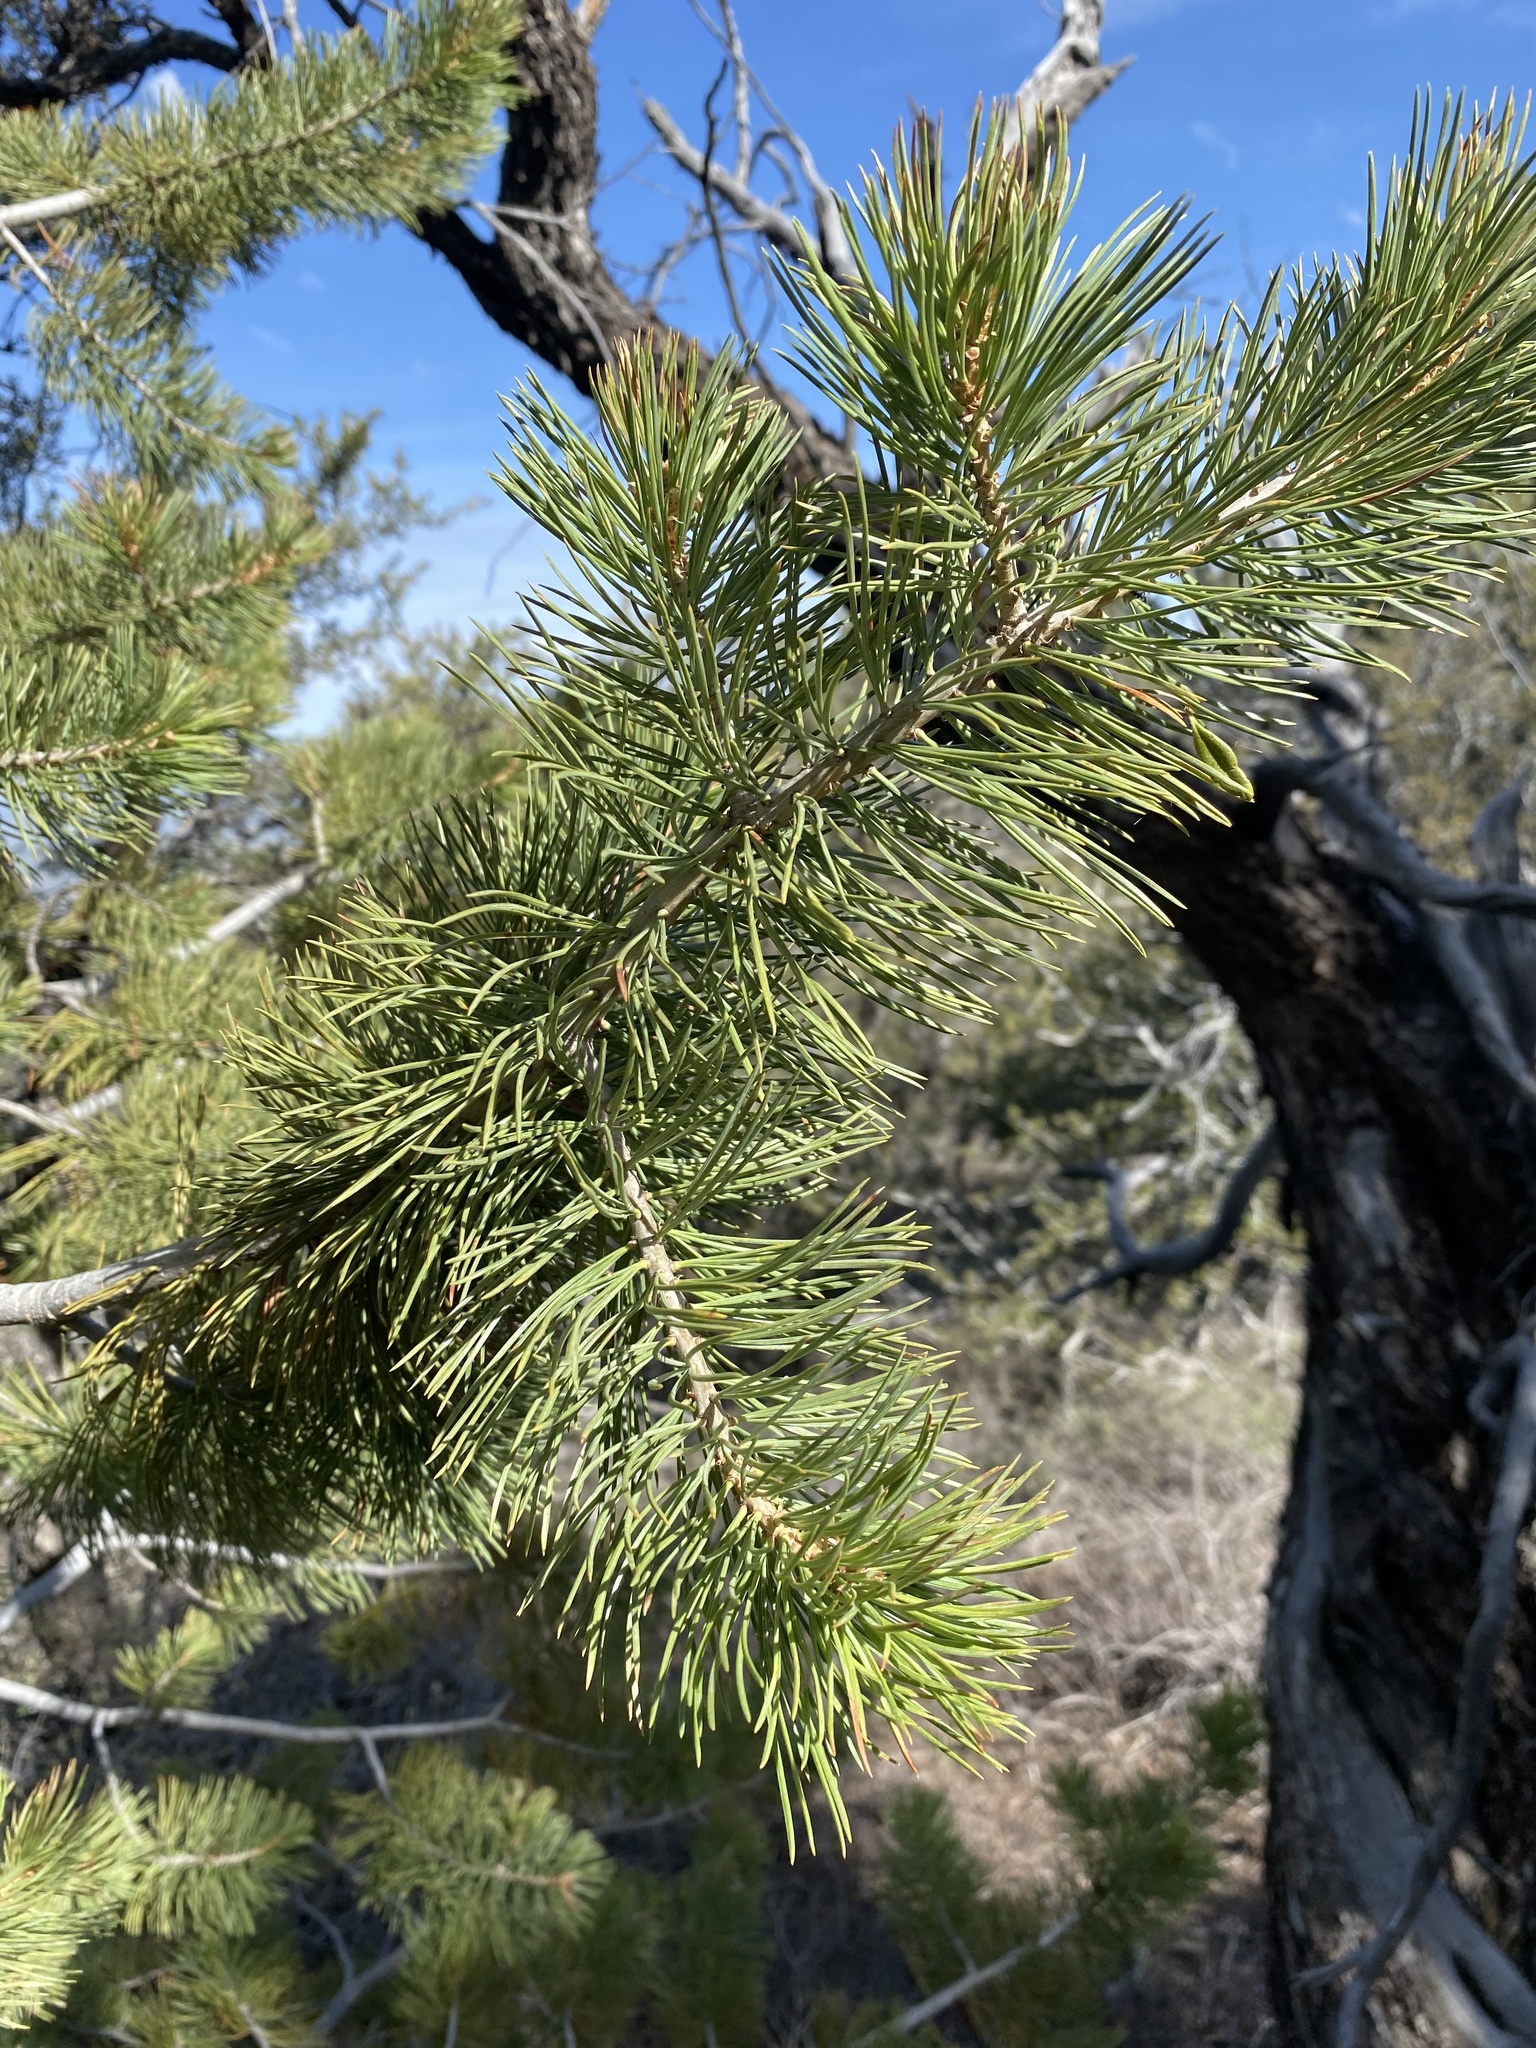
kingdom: Plantae
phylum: Tracheophyta
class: Pinopsida
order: Pinales
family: Pinaceae
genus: Pinus
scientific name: Pinus flexilis
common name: Limber pine
